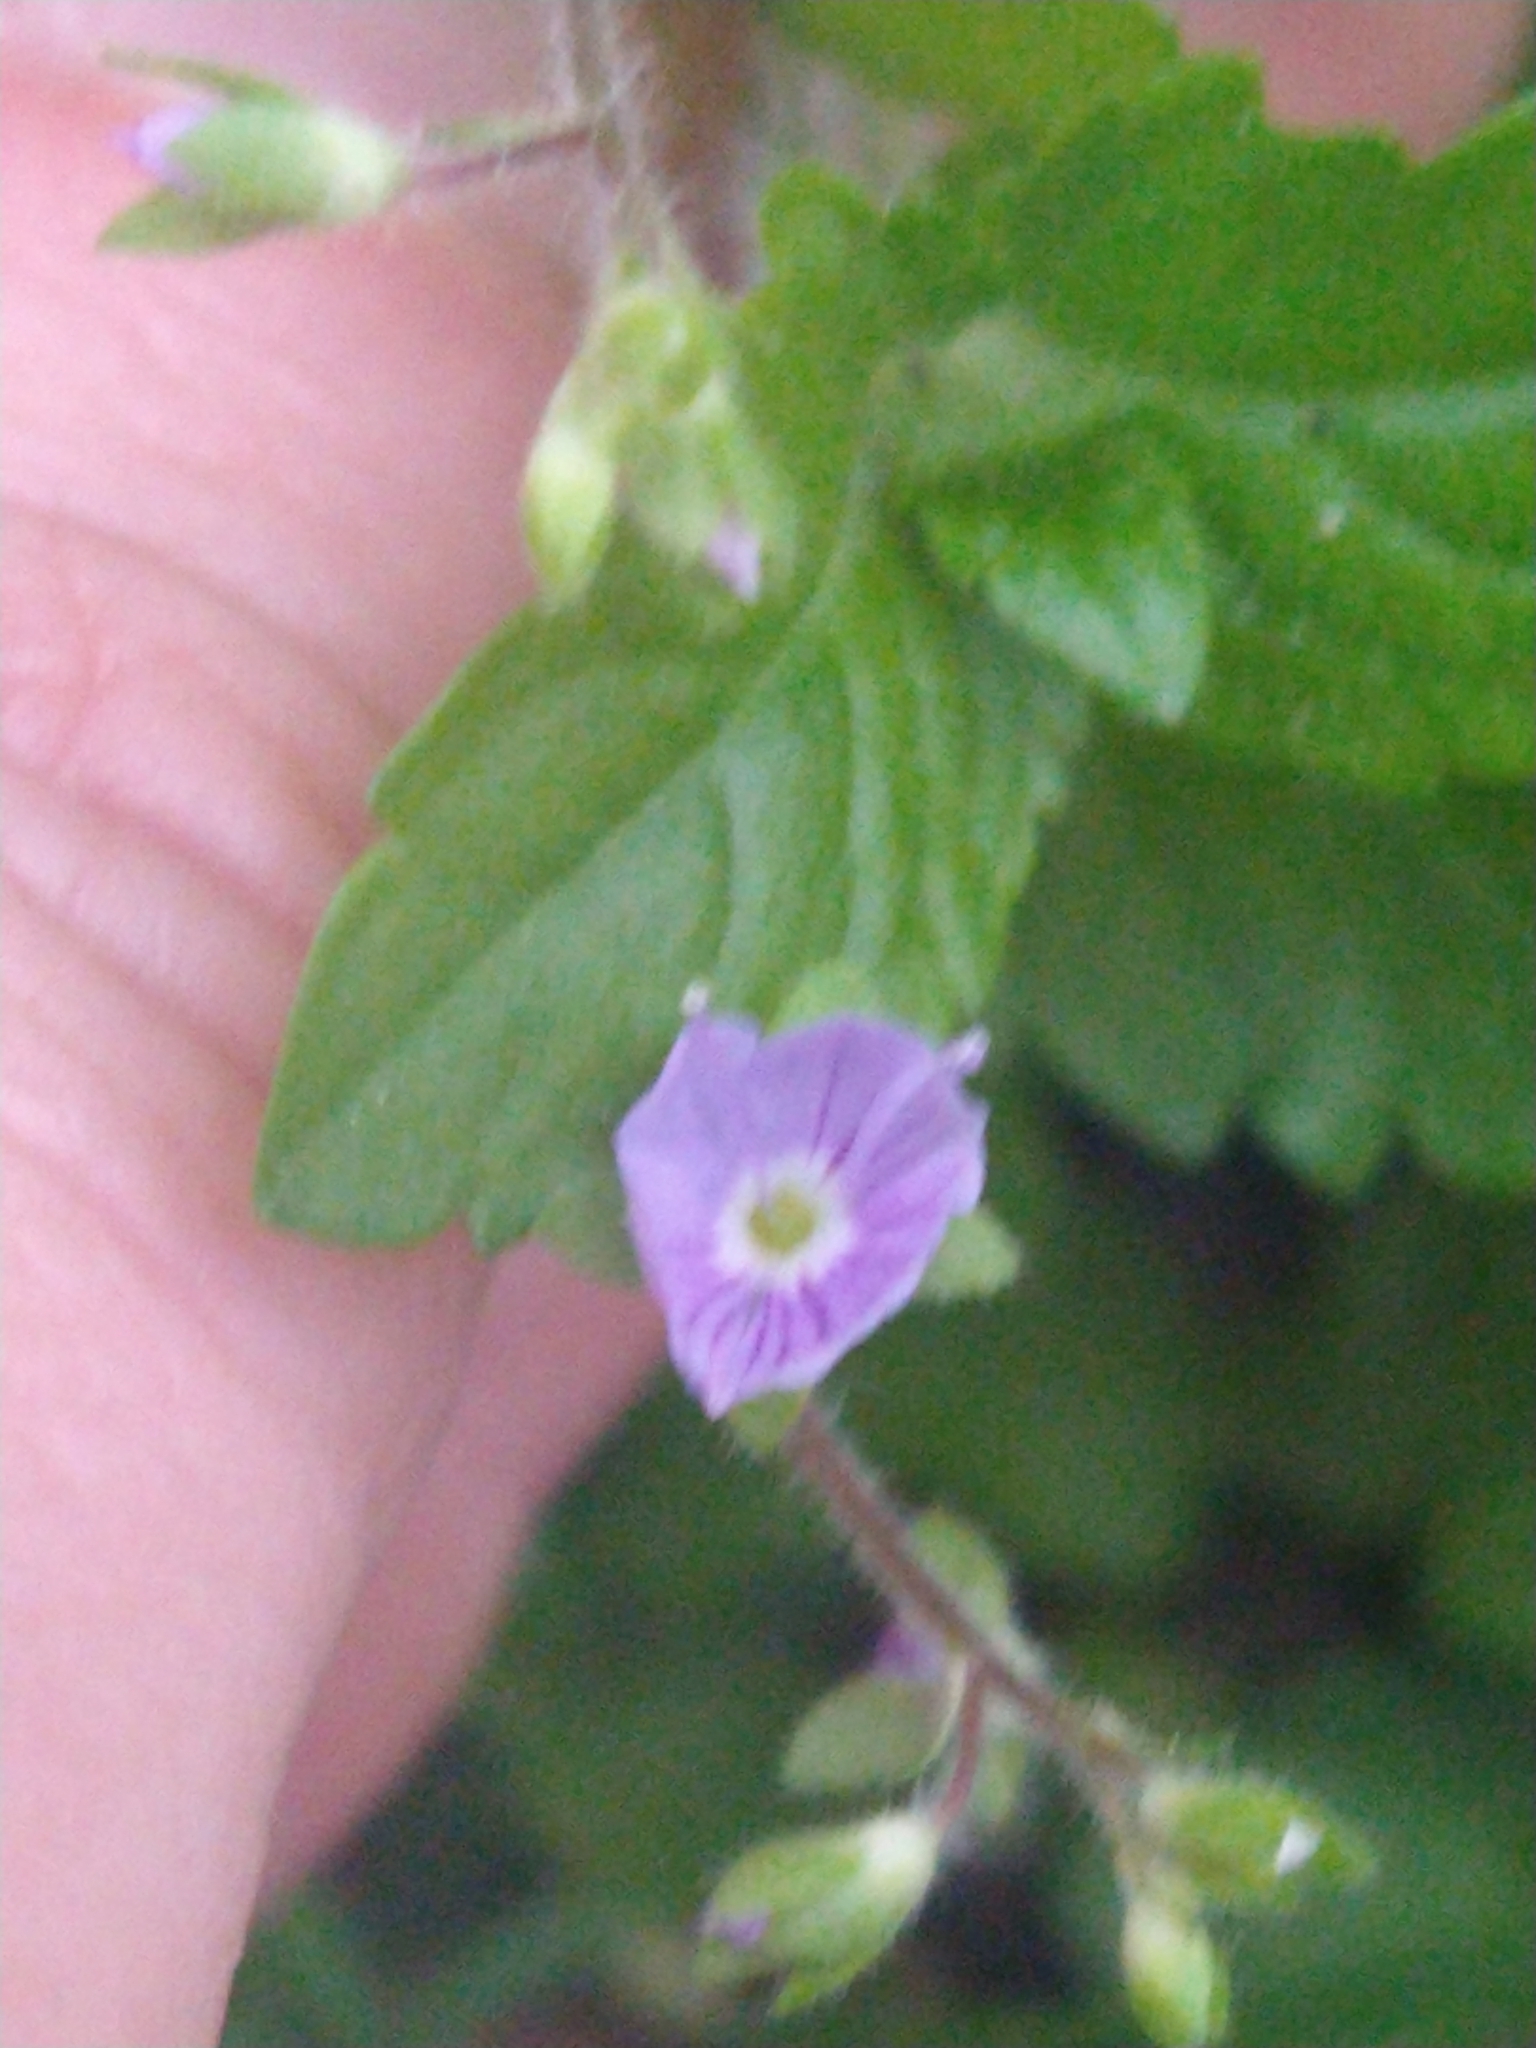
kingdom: Plantae
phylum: Tracheophyta
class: Magnoliopsida
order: Lamiales
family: Plantaginaceae
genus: Veronica
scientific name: Veronica montana
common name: Wood speedwell
